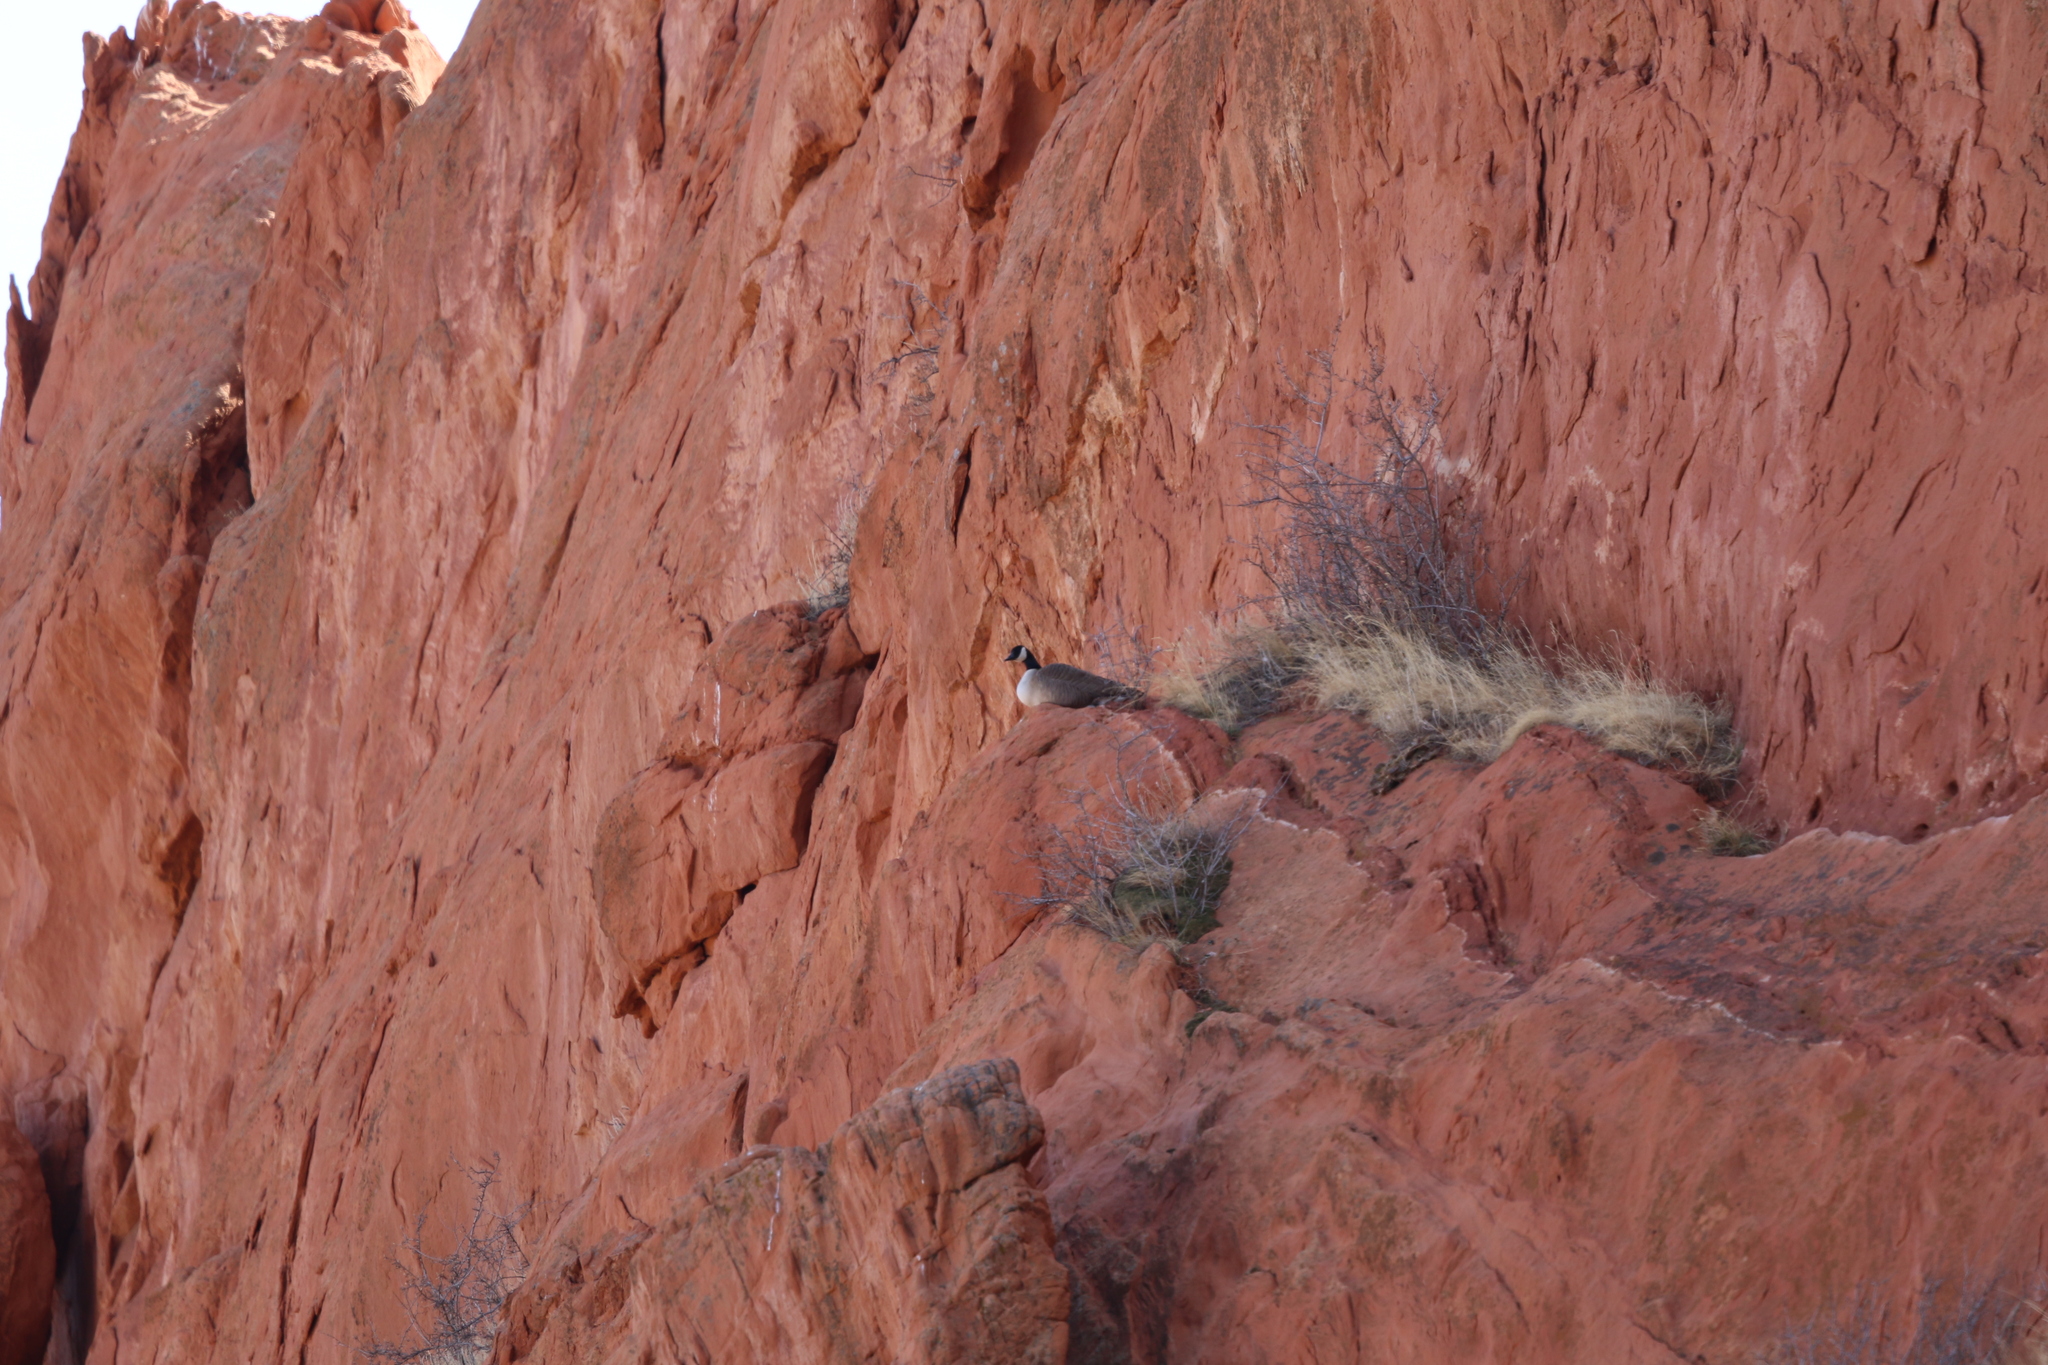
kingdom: Animalia
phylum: Chordata
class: Aves
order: Anseriformes
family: Anatidae
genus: Branta
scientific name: Branta canadensis
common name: Canada goose
